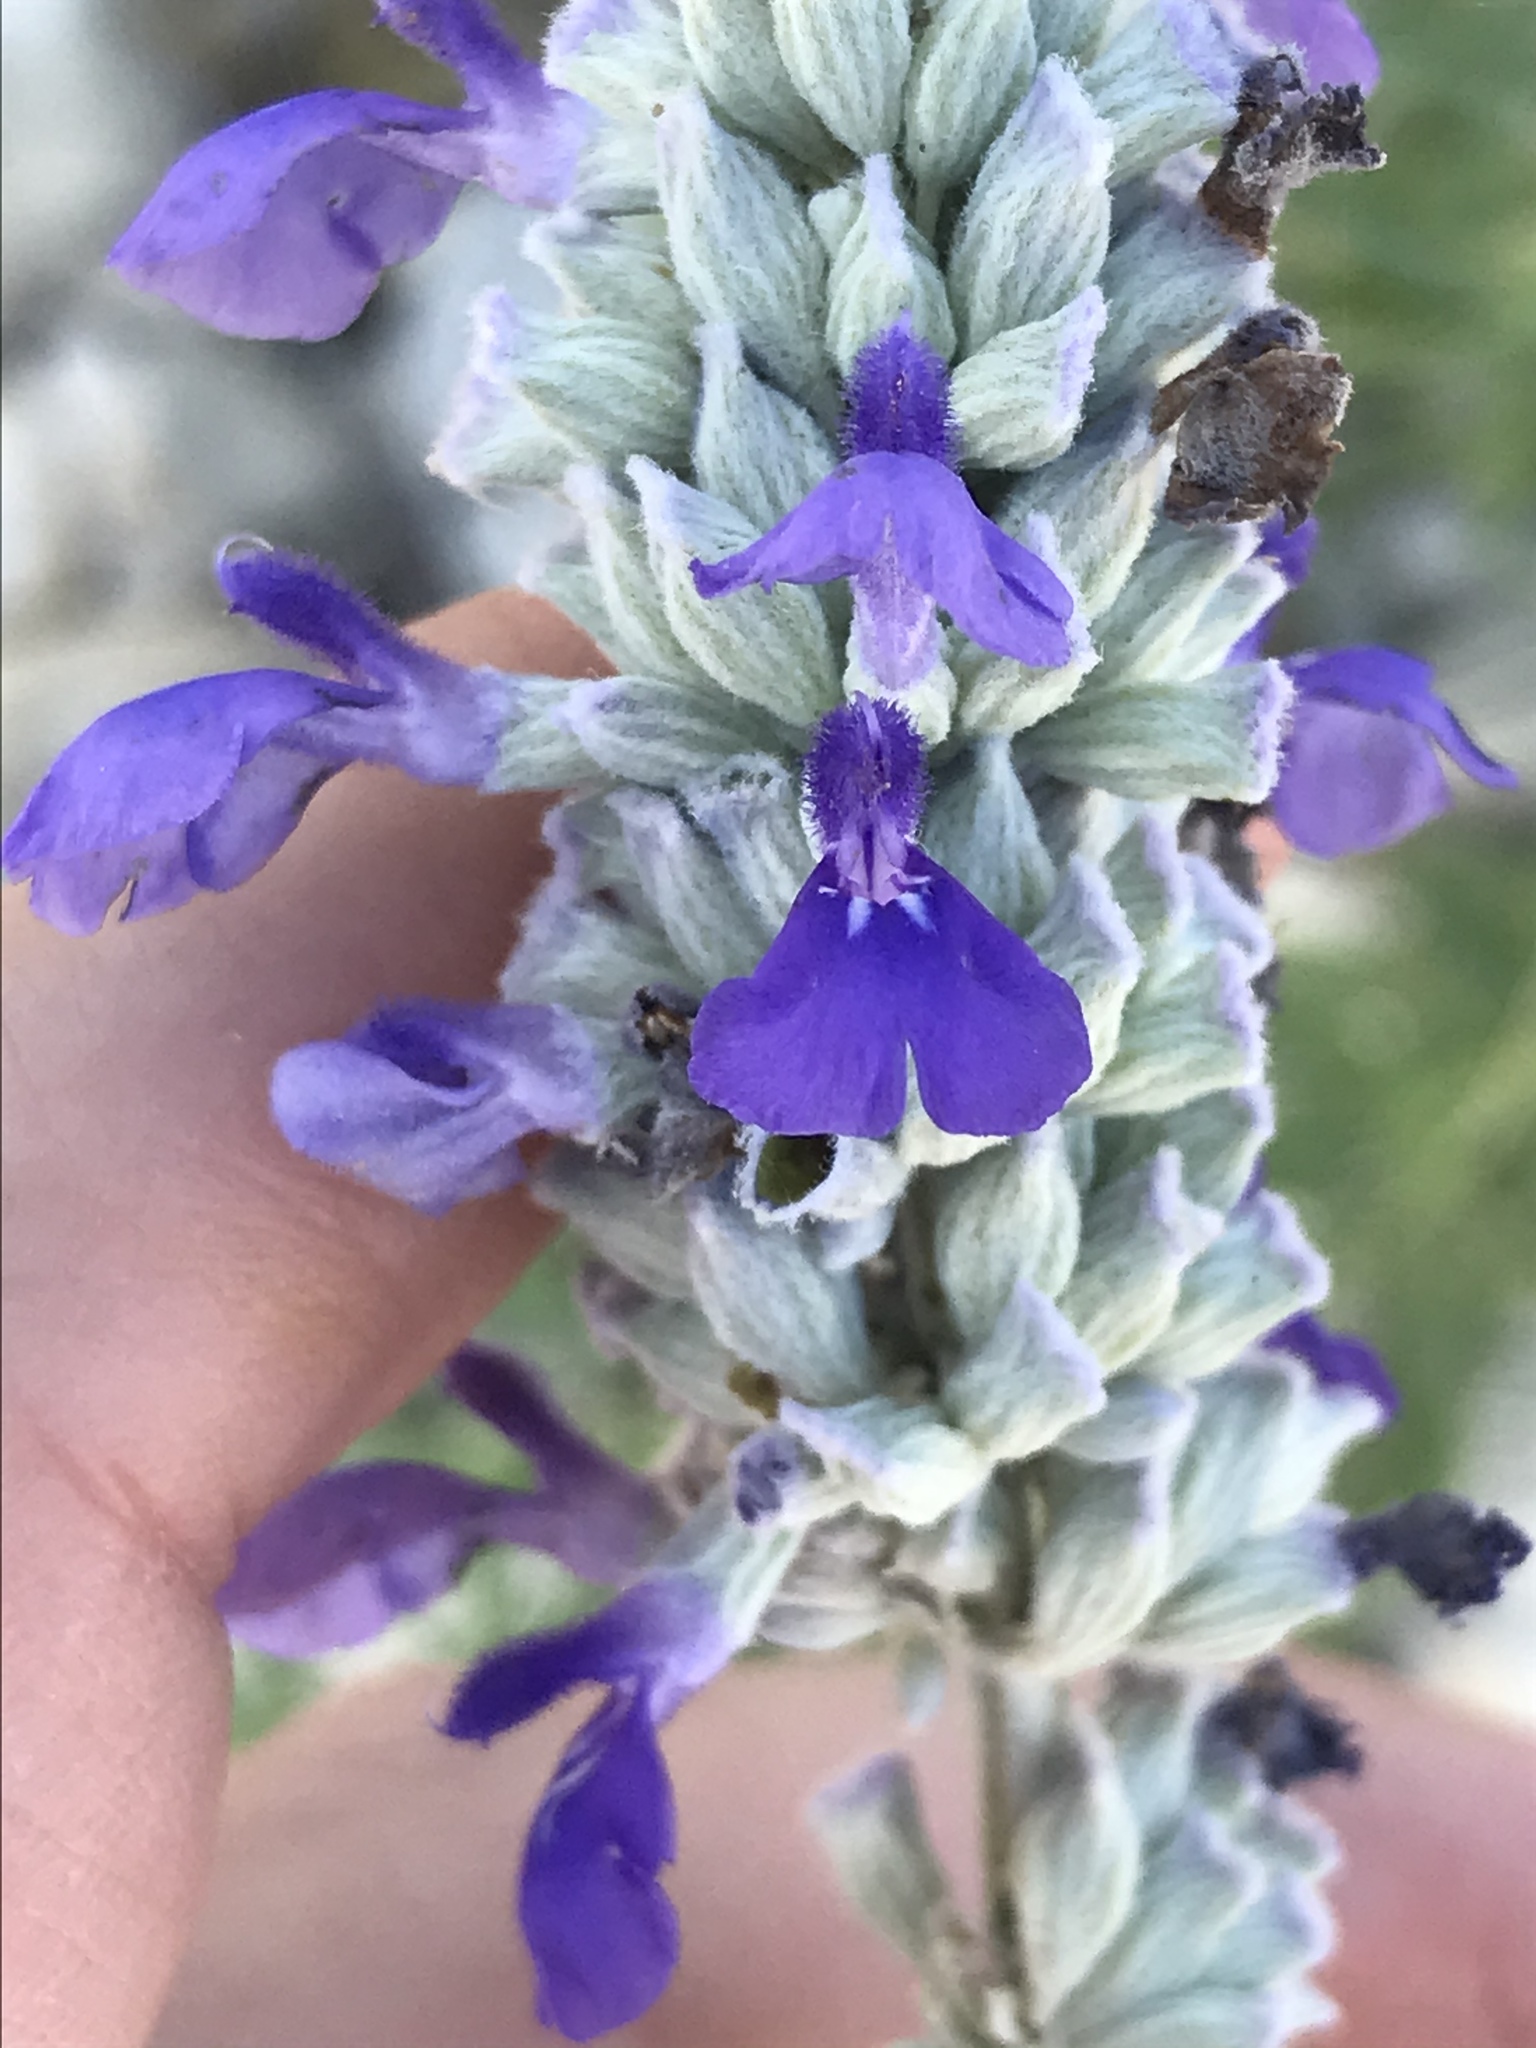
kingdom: Plantae
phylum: Tracheophyta
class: Magnoliopsida
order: Lamiales
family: Lamiaceae
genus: Salvia
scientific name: Salvia farinacea
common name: Mealy sage
